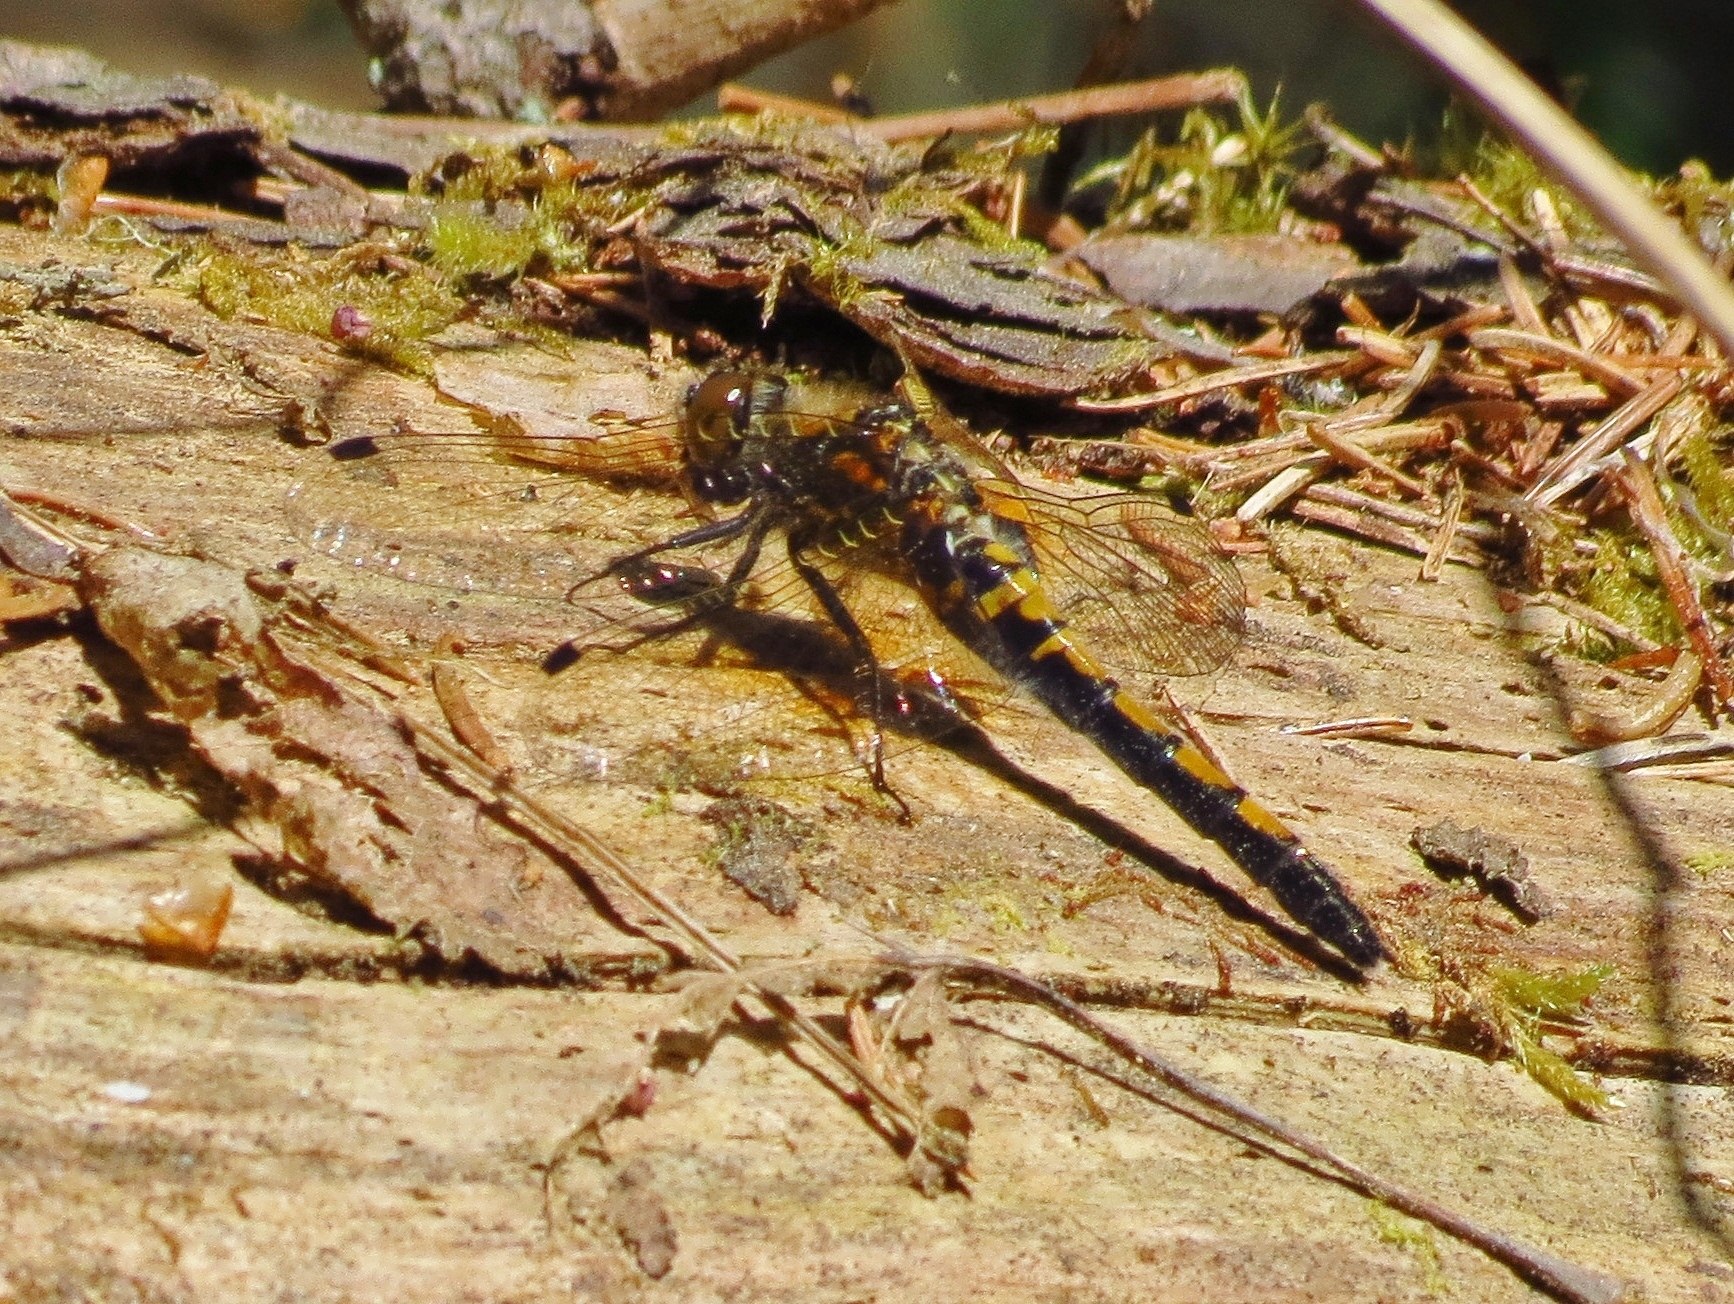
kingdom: Animalia
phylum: Arthropoda
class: Insecta
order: Odonata
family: Libellulidae
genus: Leucorrhinia
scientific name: Leucorrhinia rubicunda
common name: Ruby whiteface
